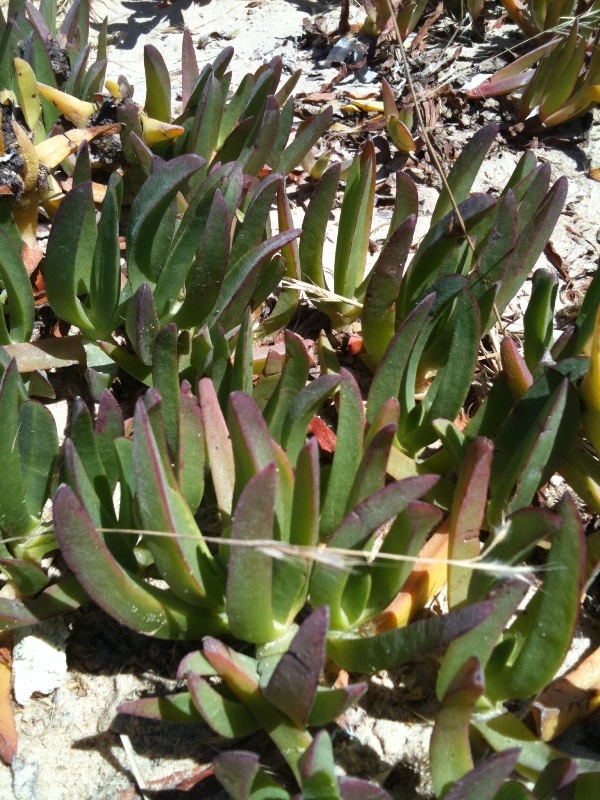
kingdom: Plantae
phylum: Tracheophyta
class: Magnoliopsida
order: Caryophyllales
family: Aizoaceae
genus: Carpobrotus
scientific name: Carpobrotus edulis
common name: Hottentot-fig
